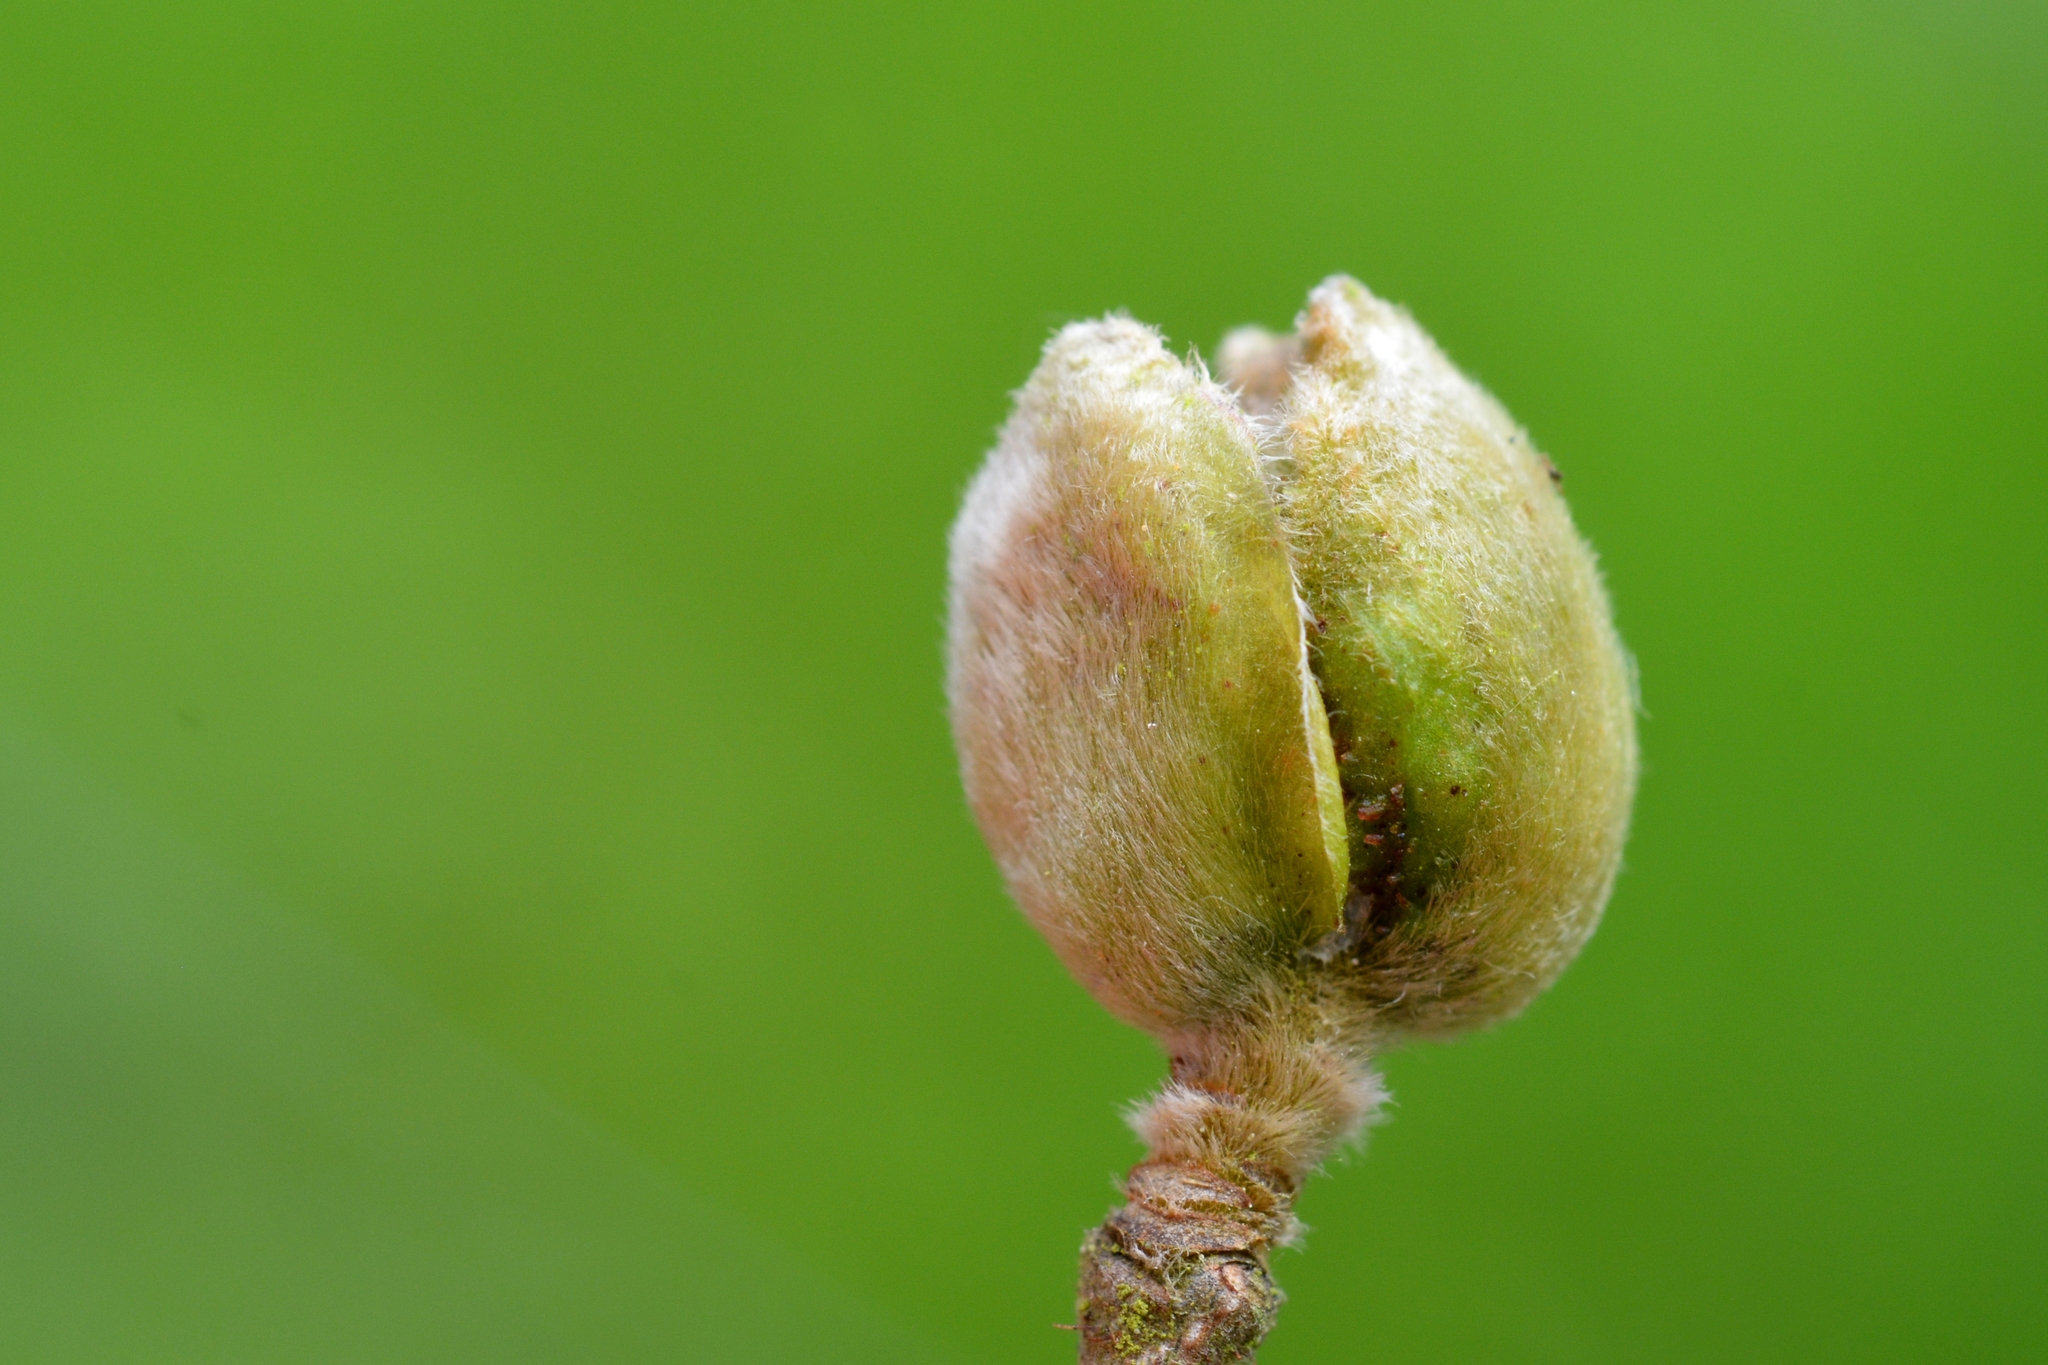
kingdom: Animalia
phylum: Arthropoda
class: Arachnida
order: Trombidiformes
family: Phytoptidae
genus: Phytoptus
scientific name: Phytoptus avellanae
